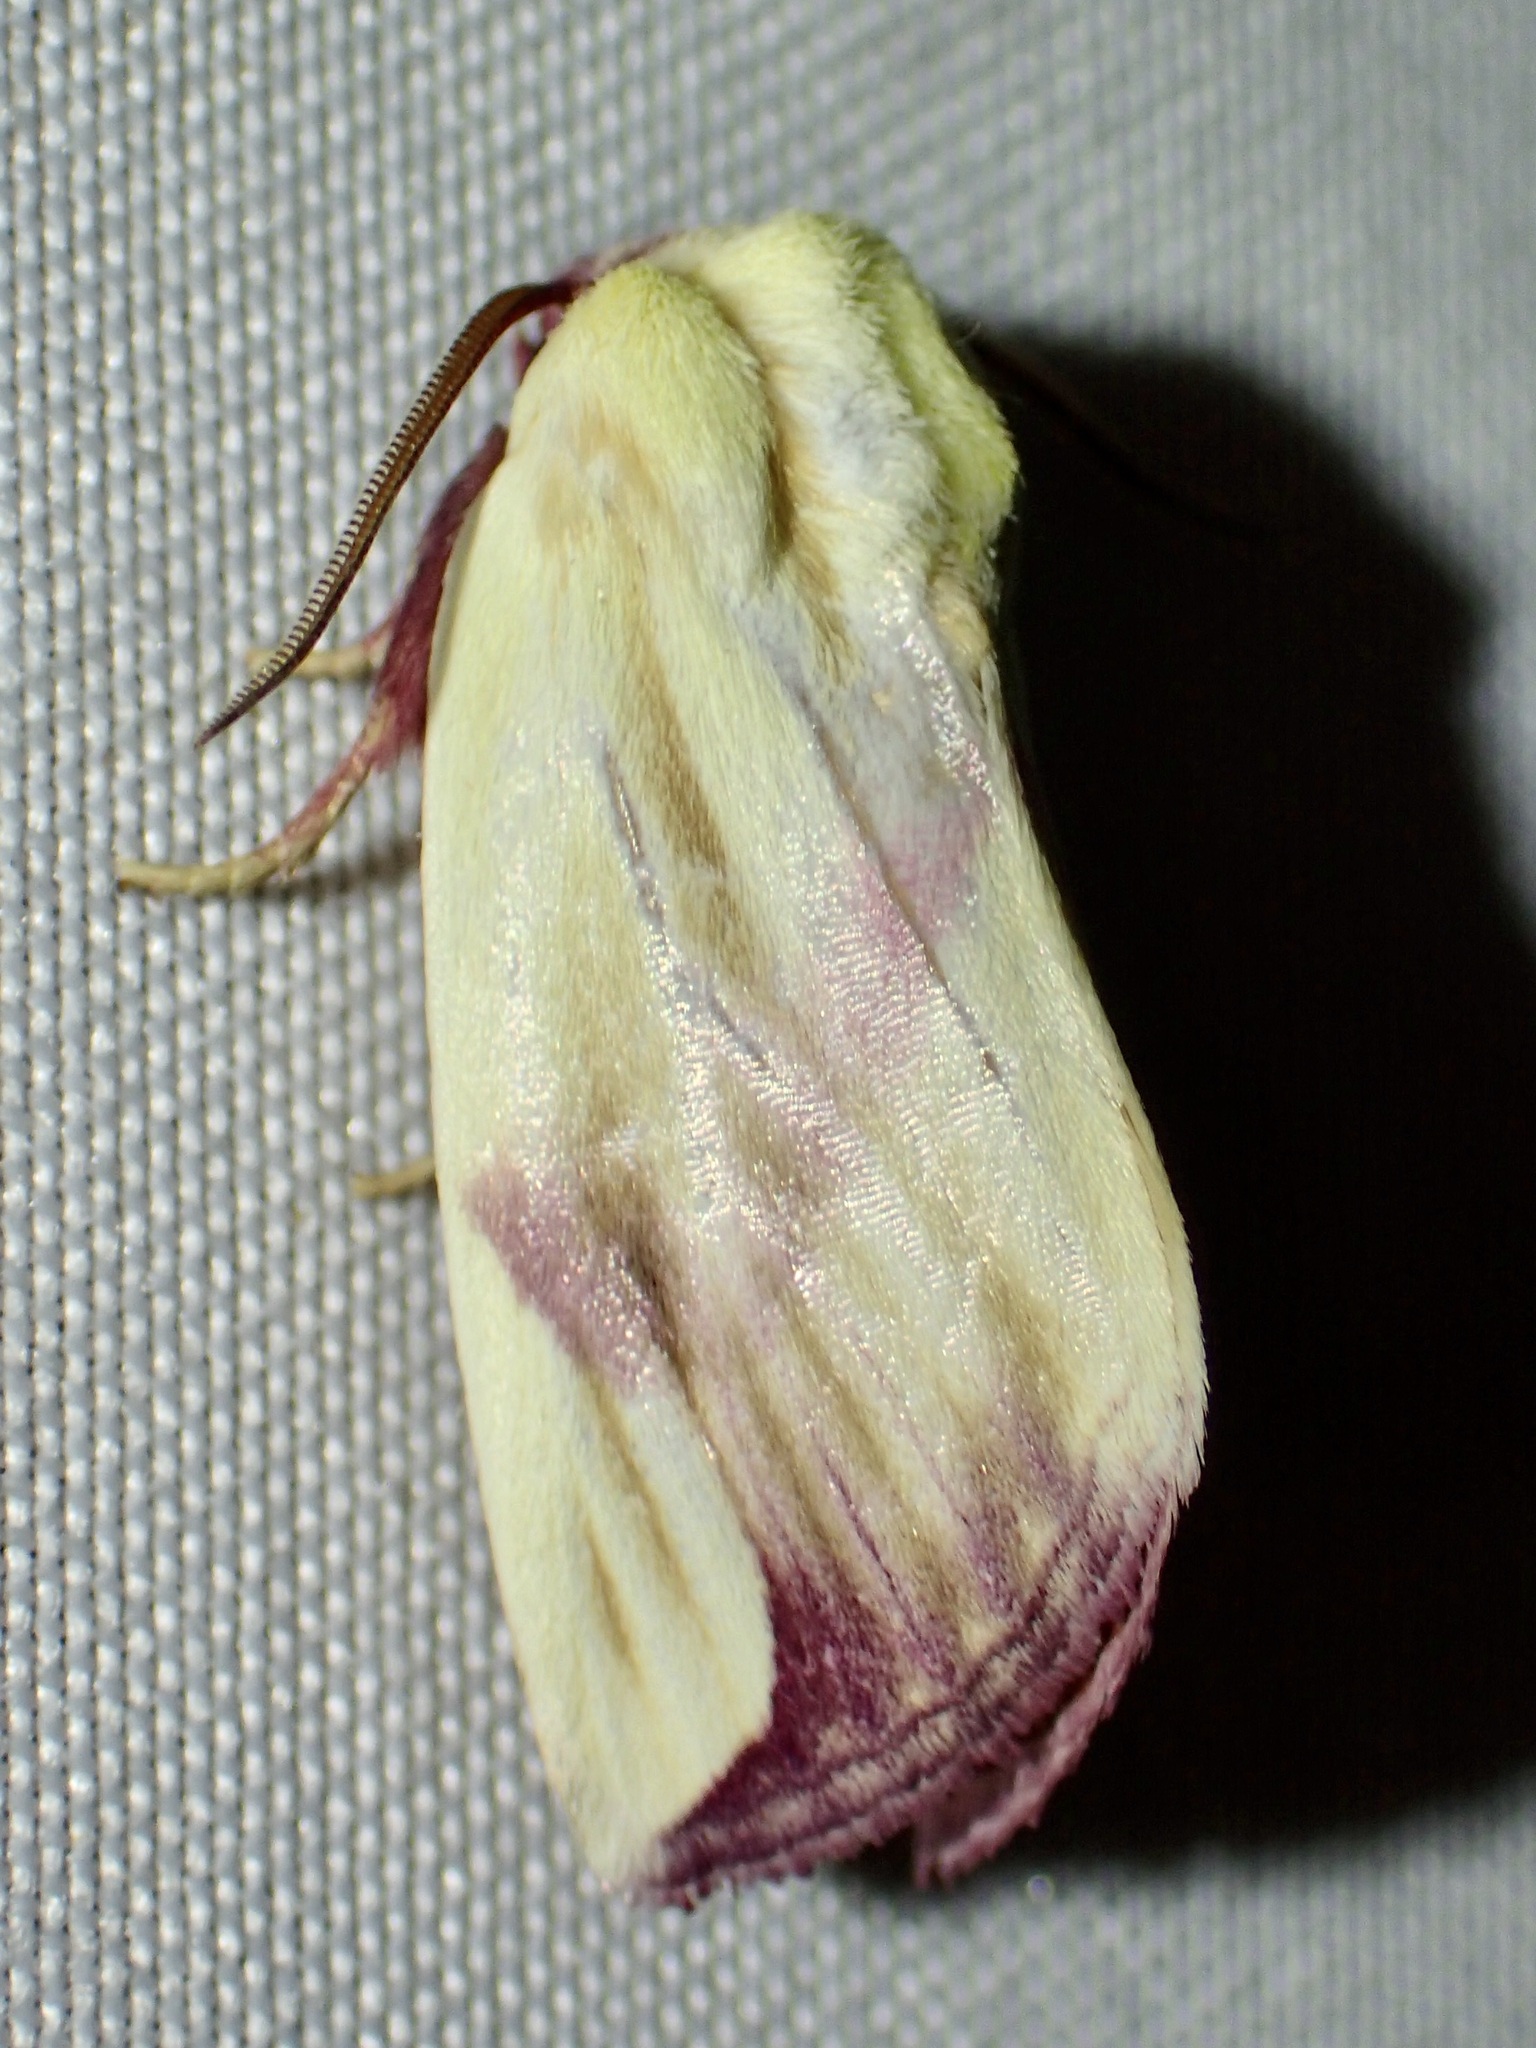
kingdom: Animalia
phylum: Arthropoda
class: Insecta
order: Lepidoptera
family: Noctuidae
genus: Thurberiphaga
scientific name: Thurberiphaga diffusa
